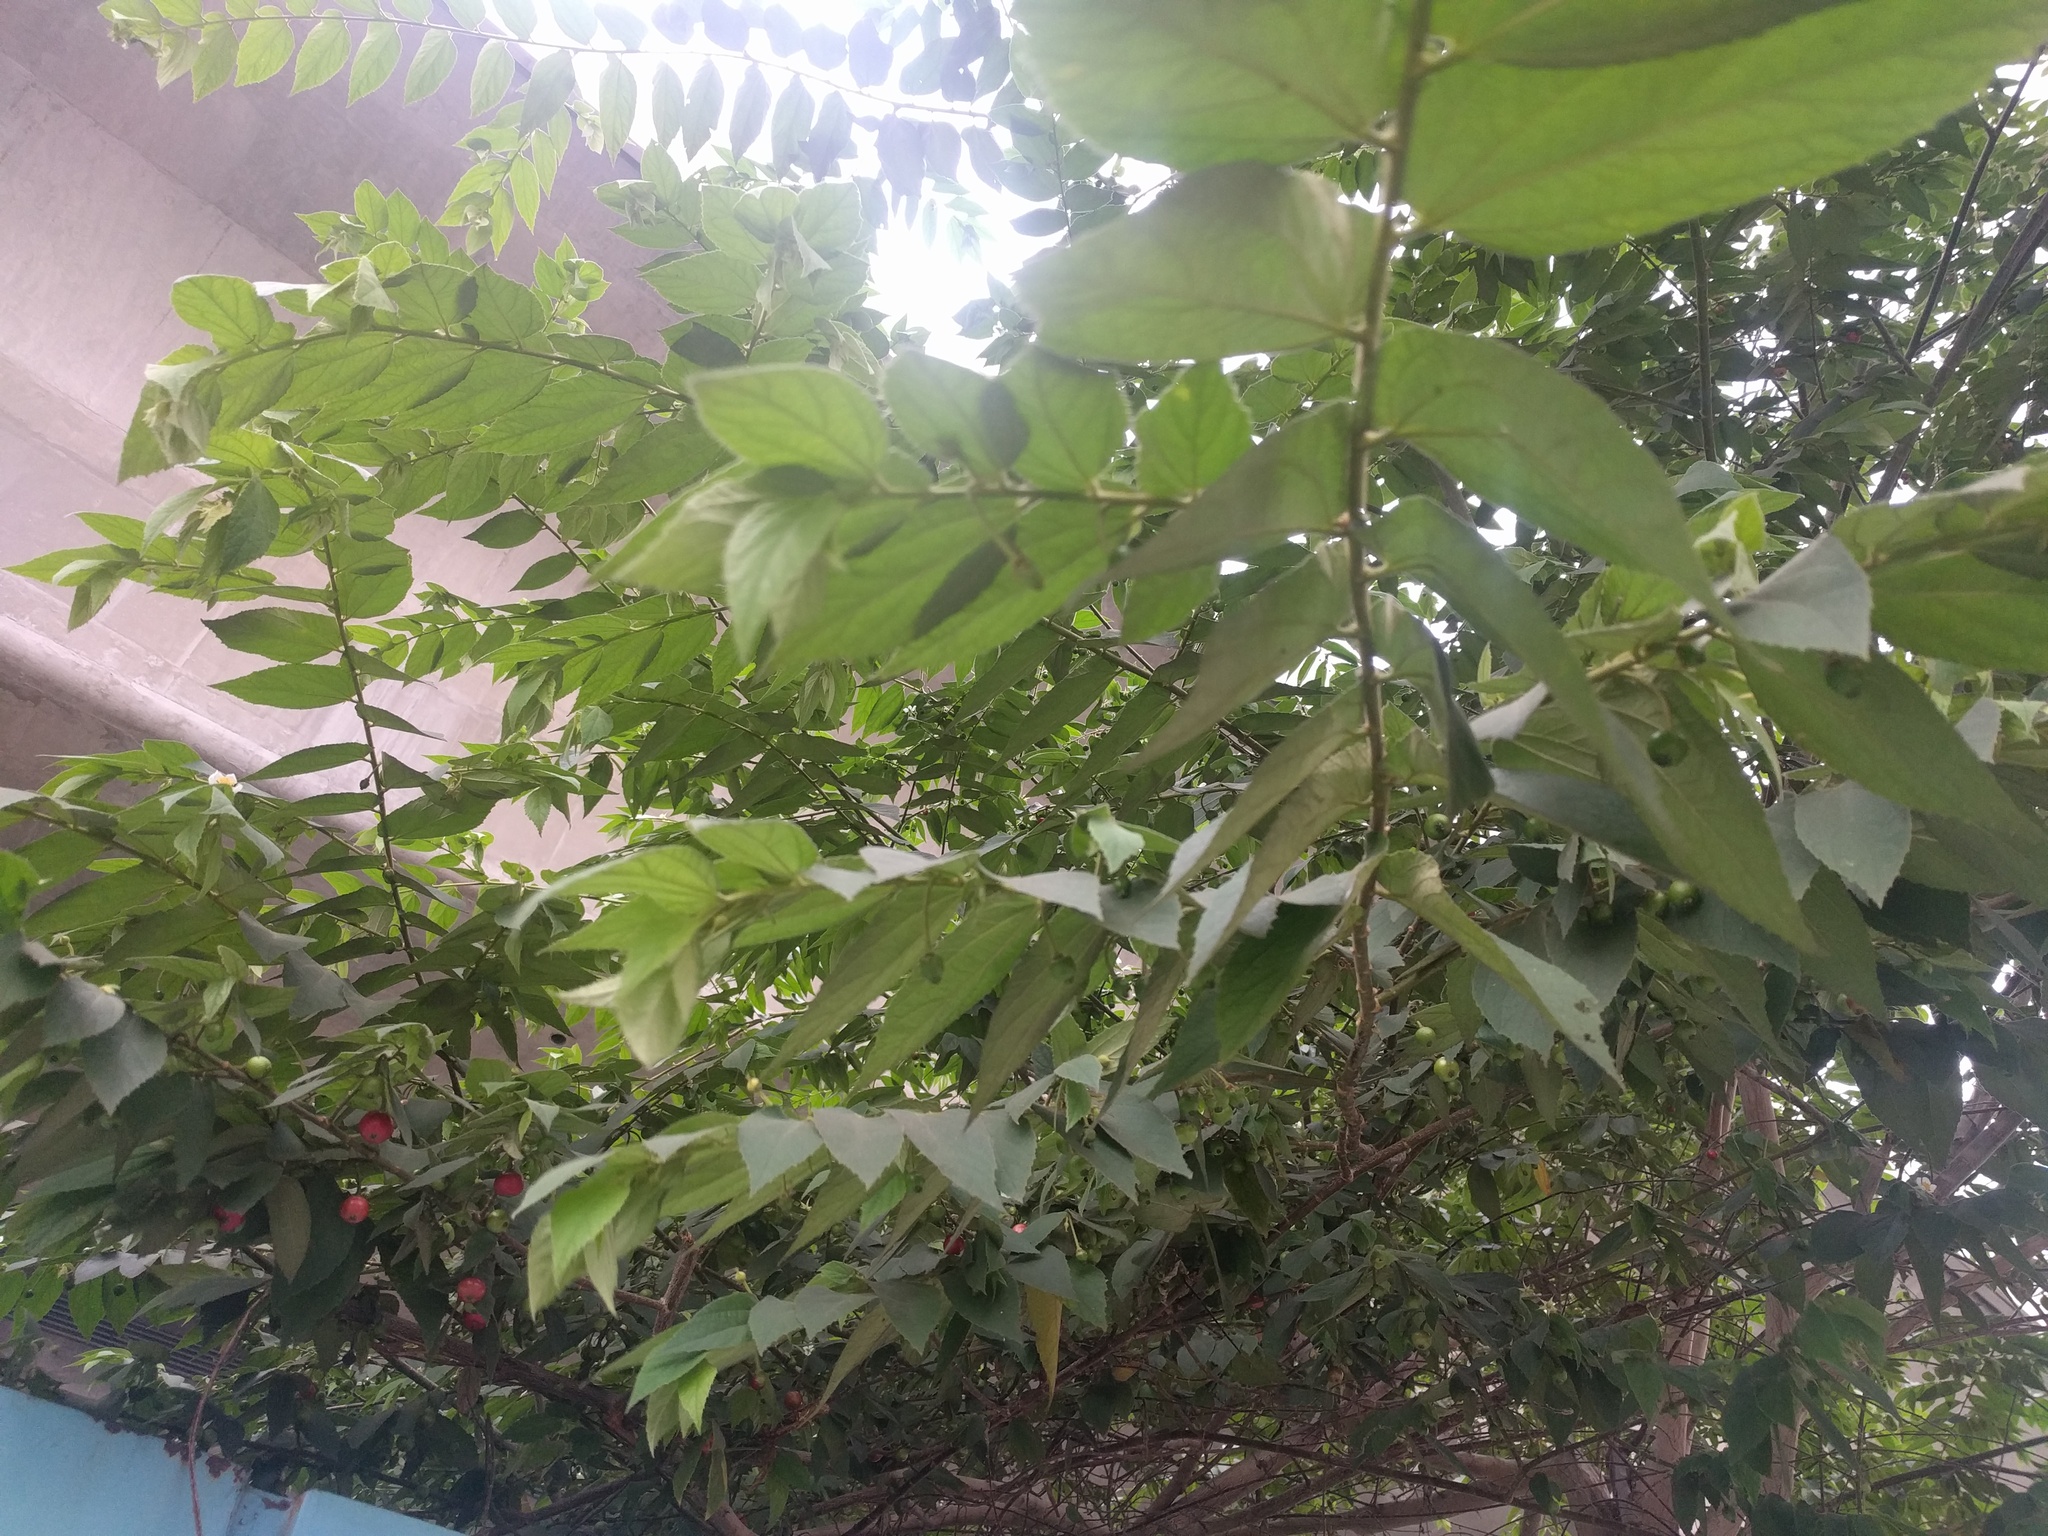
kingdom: Plantae
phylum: Tracheophyta
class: Magnoliopsida
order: Malvales
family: Muntingiaceae
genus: Muntingia
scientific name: Muntingia calabura
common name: Strawberrytree
